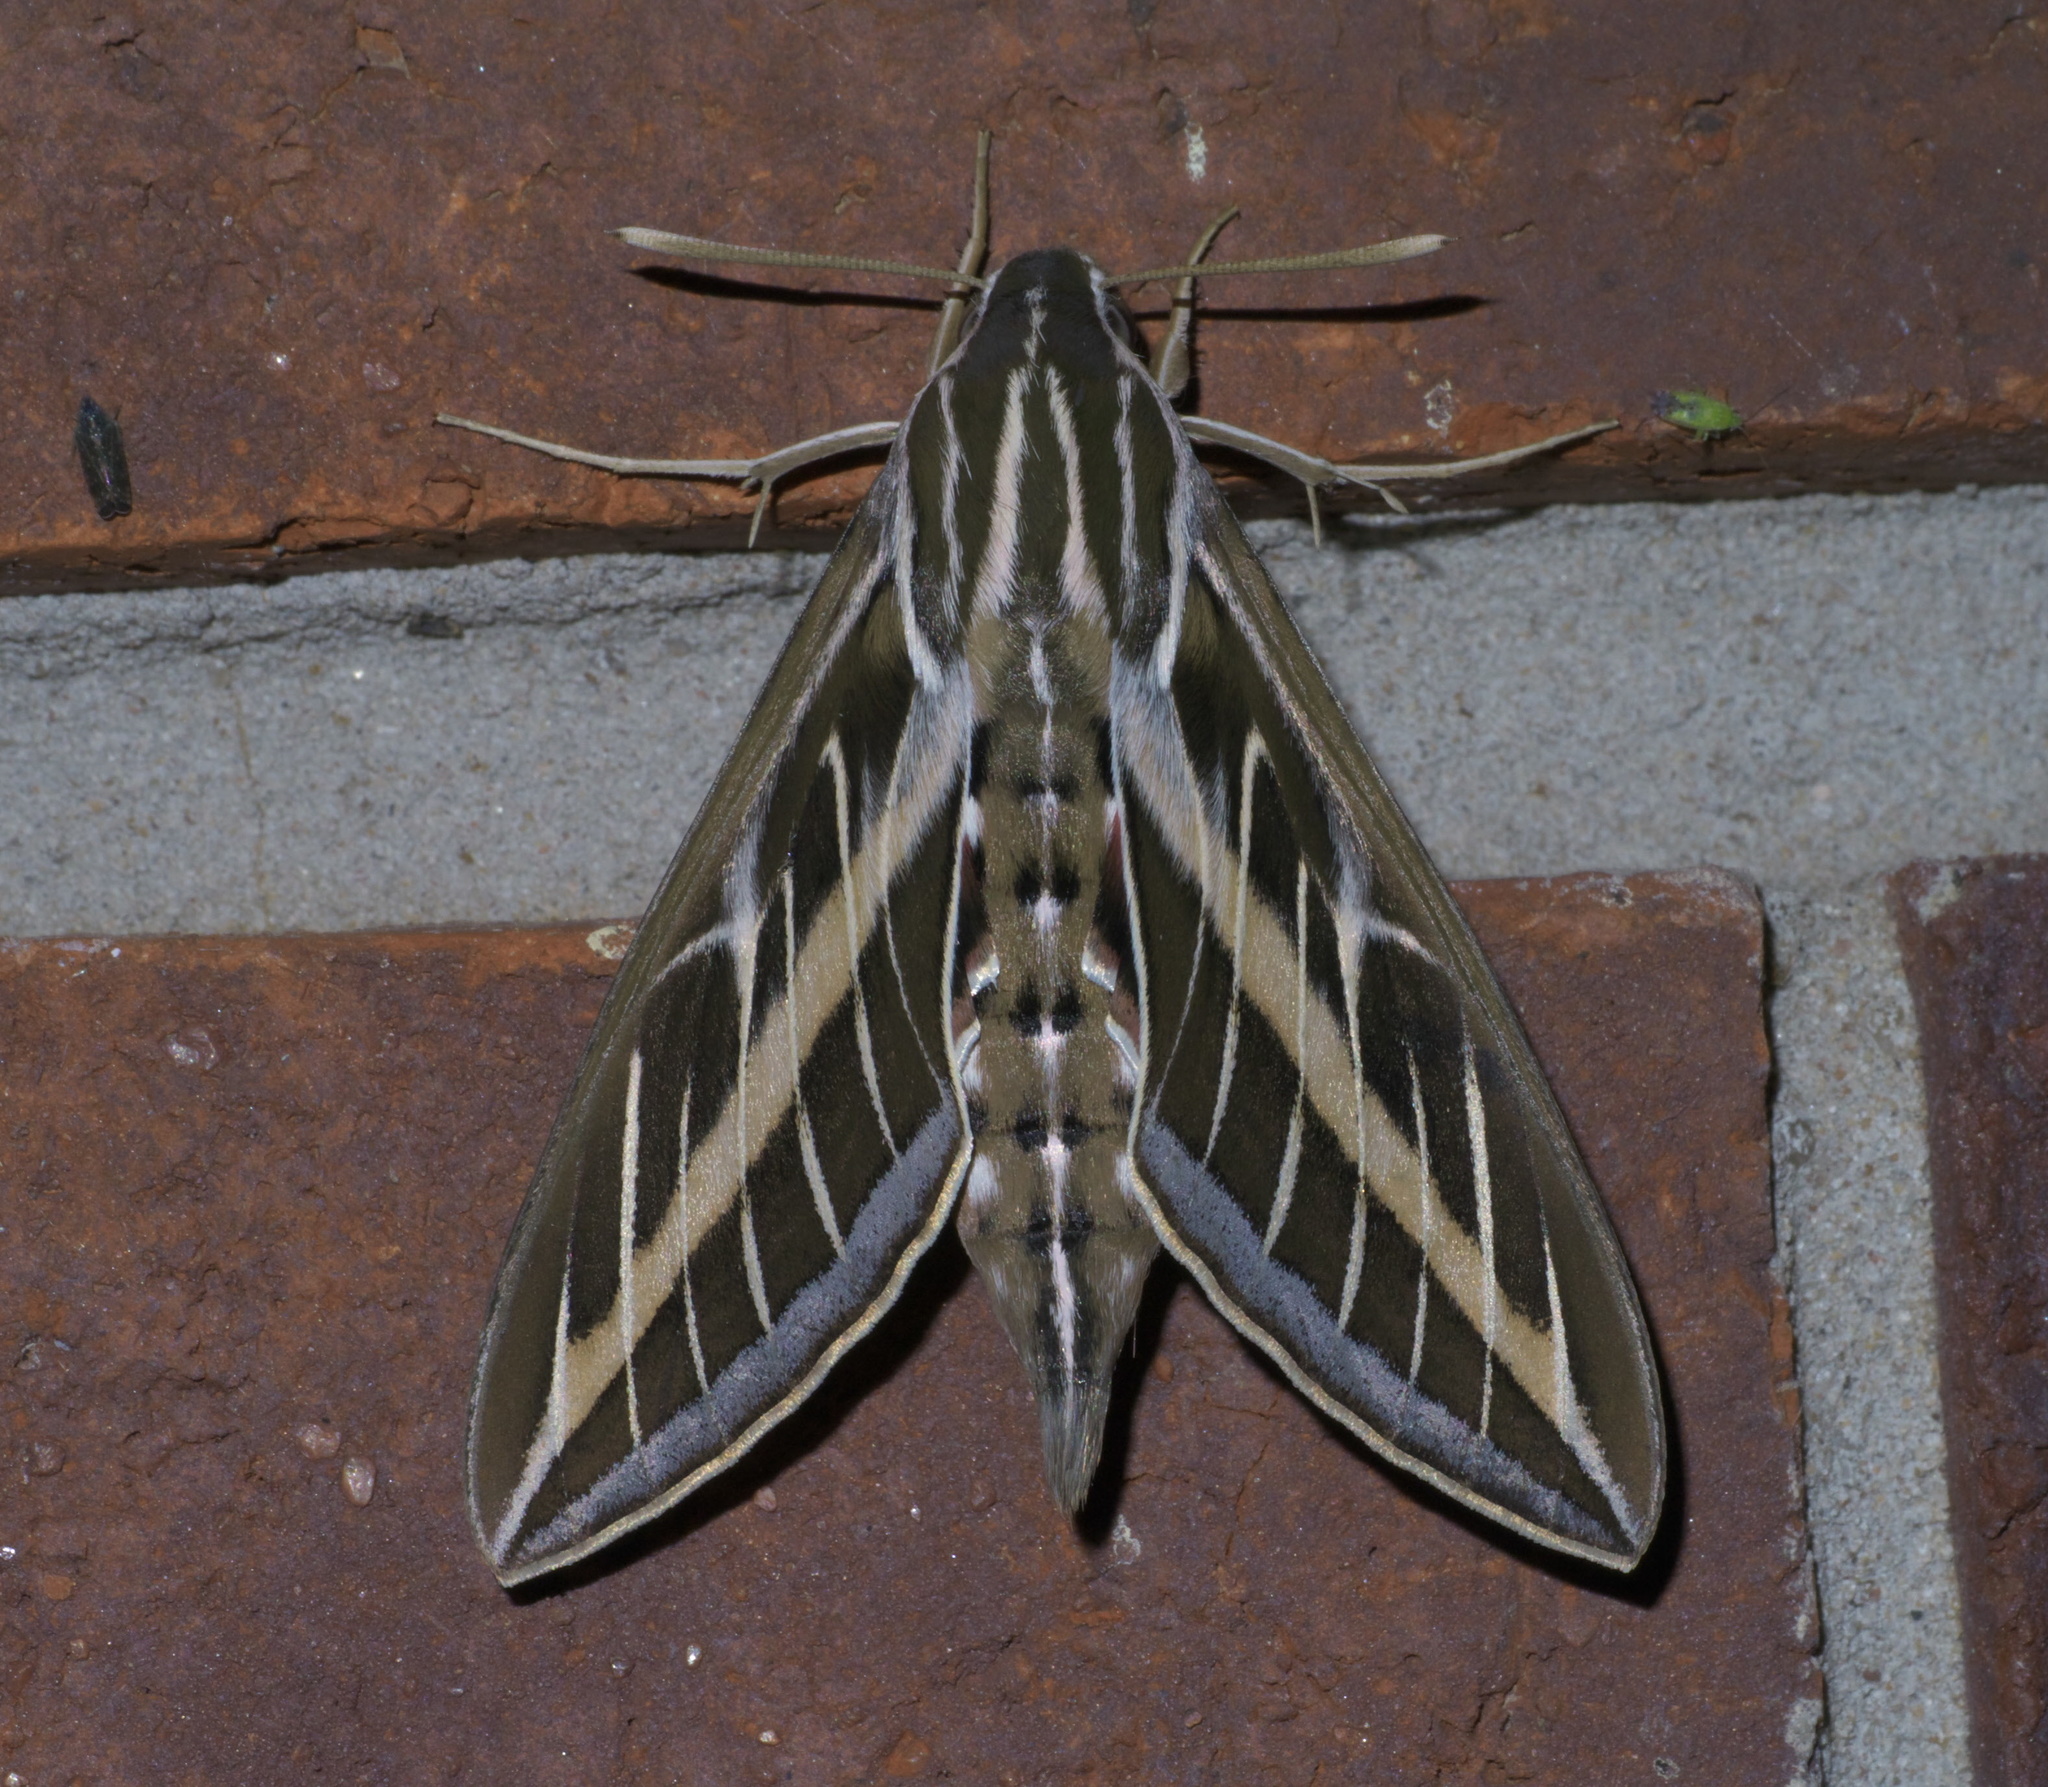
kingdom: Animalia
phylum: Arthropoda
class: Insecta
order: Lepidoptera
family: Sphingidae
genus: Hyles
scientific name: Hyles lineata
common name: White-lined sphinx
